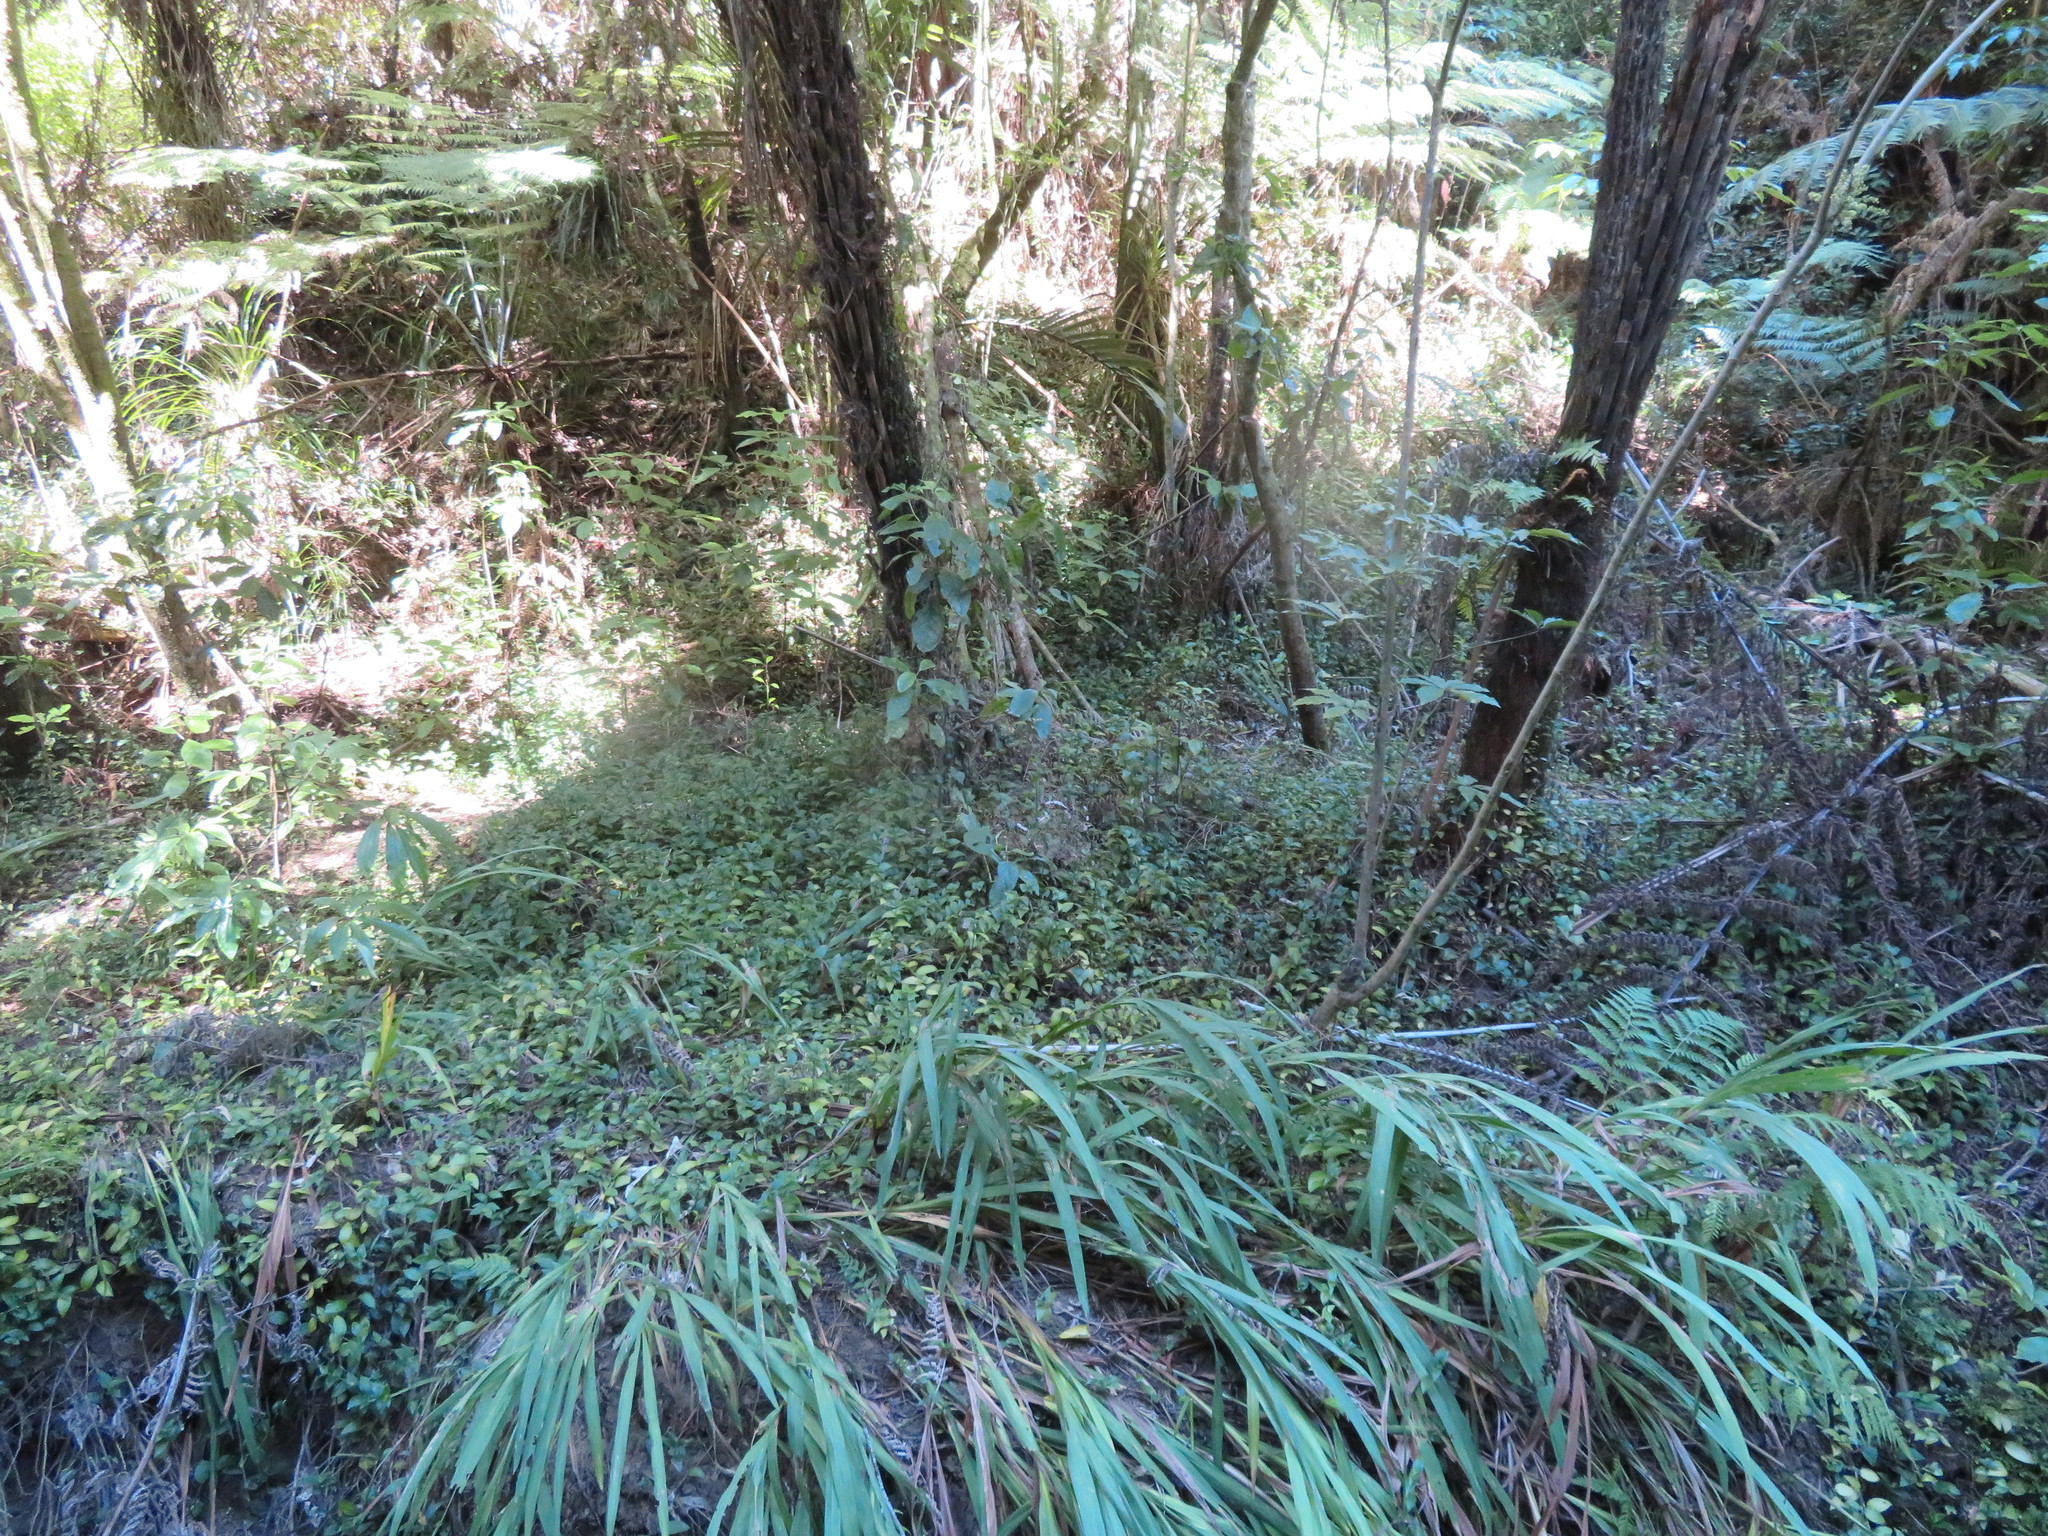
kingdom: Plantae
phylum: Tracheophyta
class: Liliopsida
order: Asparagales
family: Iridaceae
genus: Crocosmia
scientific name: Crocosmia crocosmiiflora
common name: Montbretia
